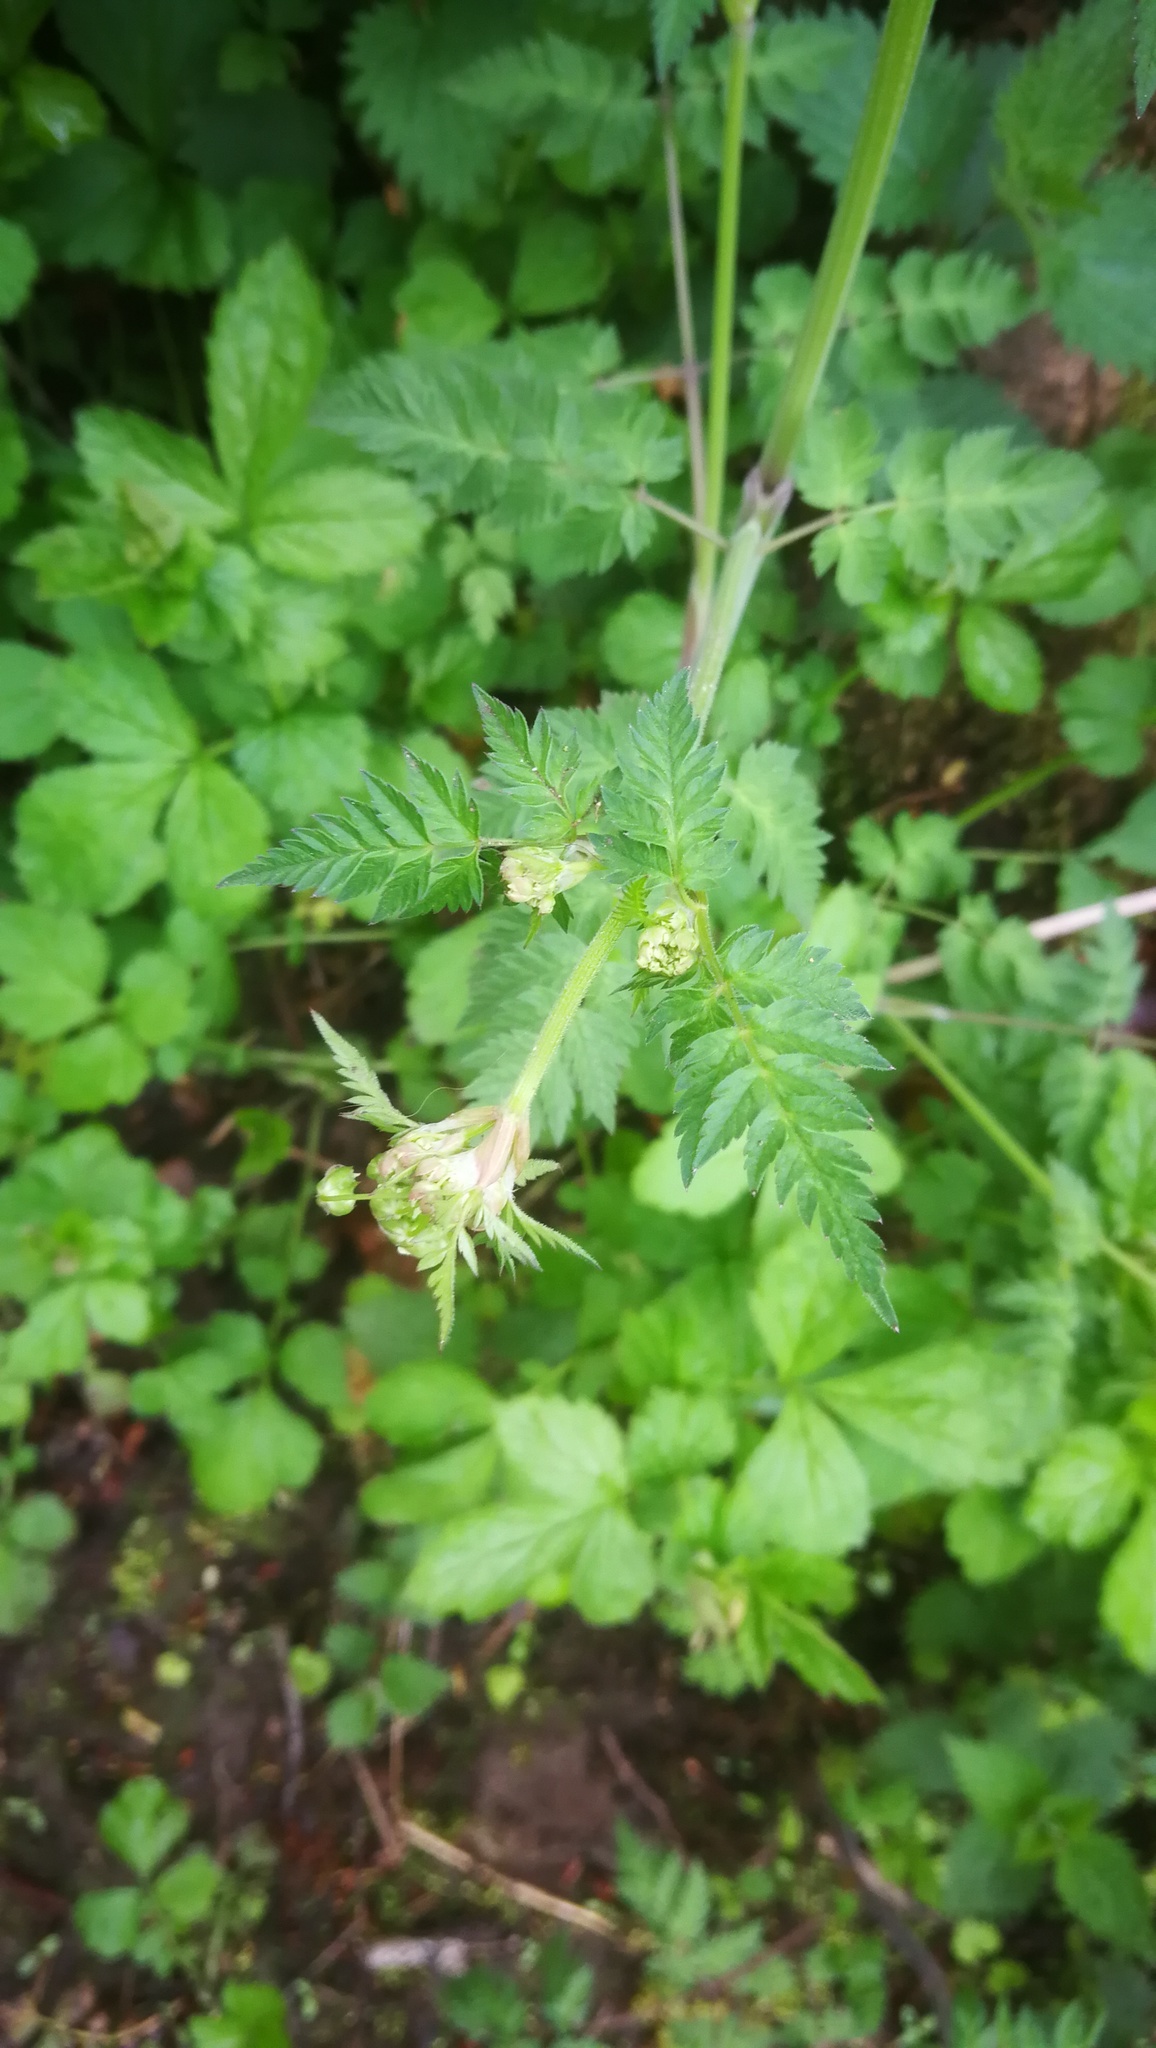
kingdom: Plantae
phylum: Tracheophyta
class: Magnoliopsida
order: Apiales
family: Apiaceae
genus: Anthriscus
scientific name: Anthriscus sylvestris
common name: Cow parsley
